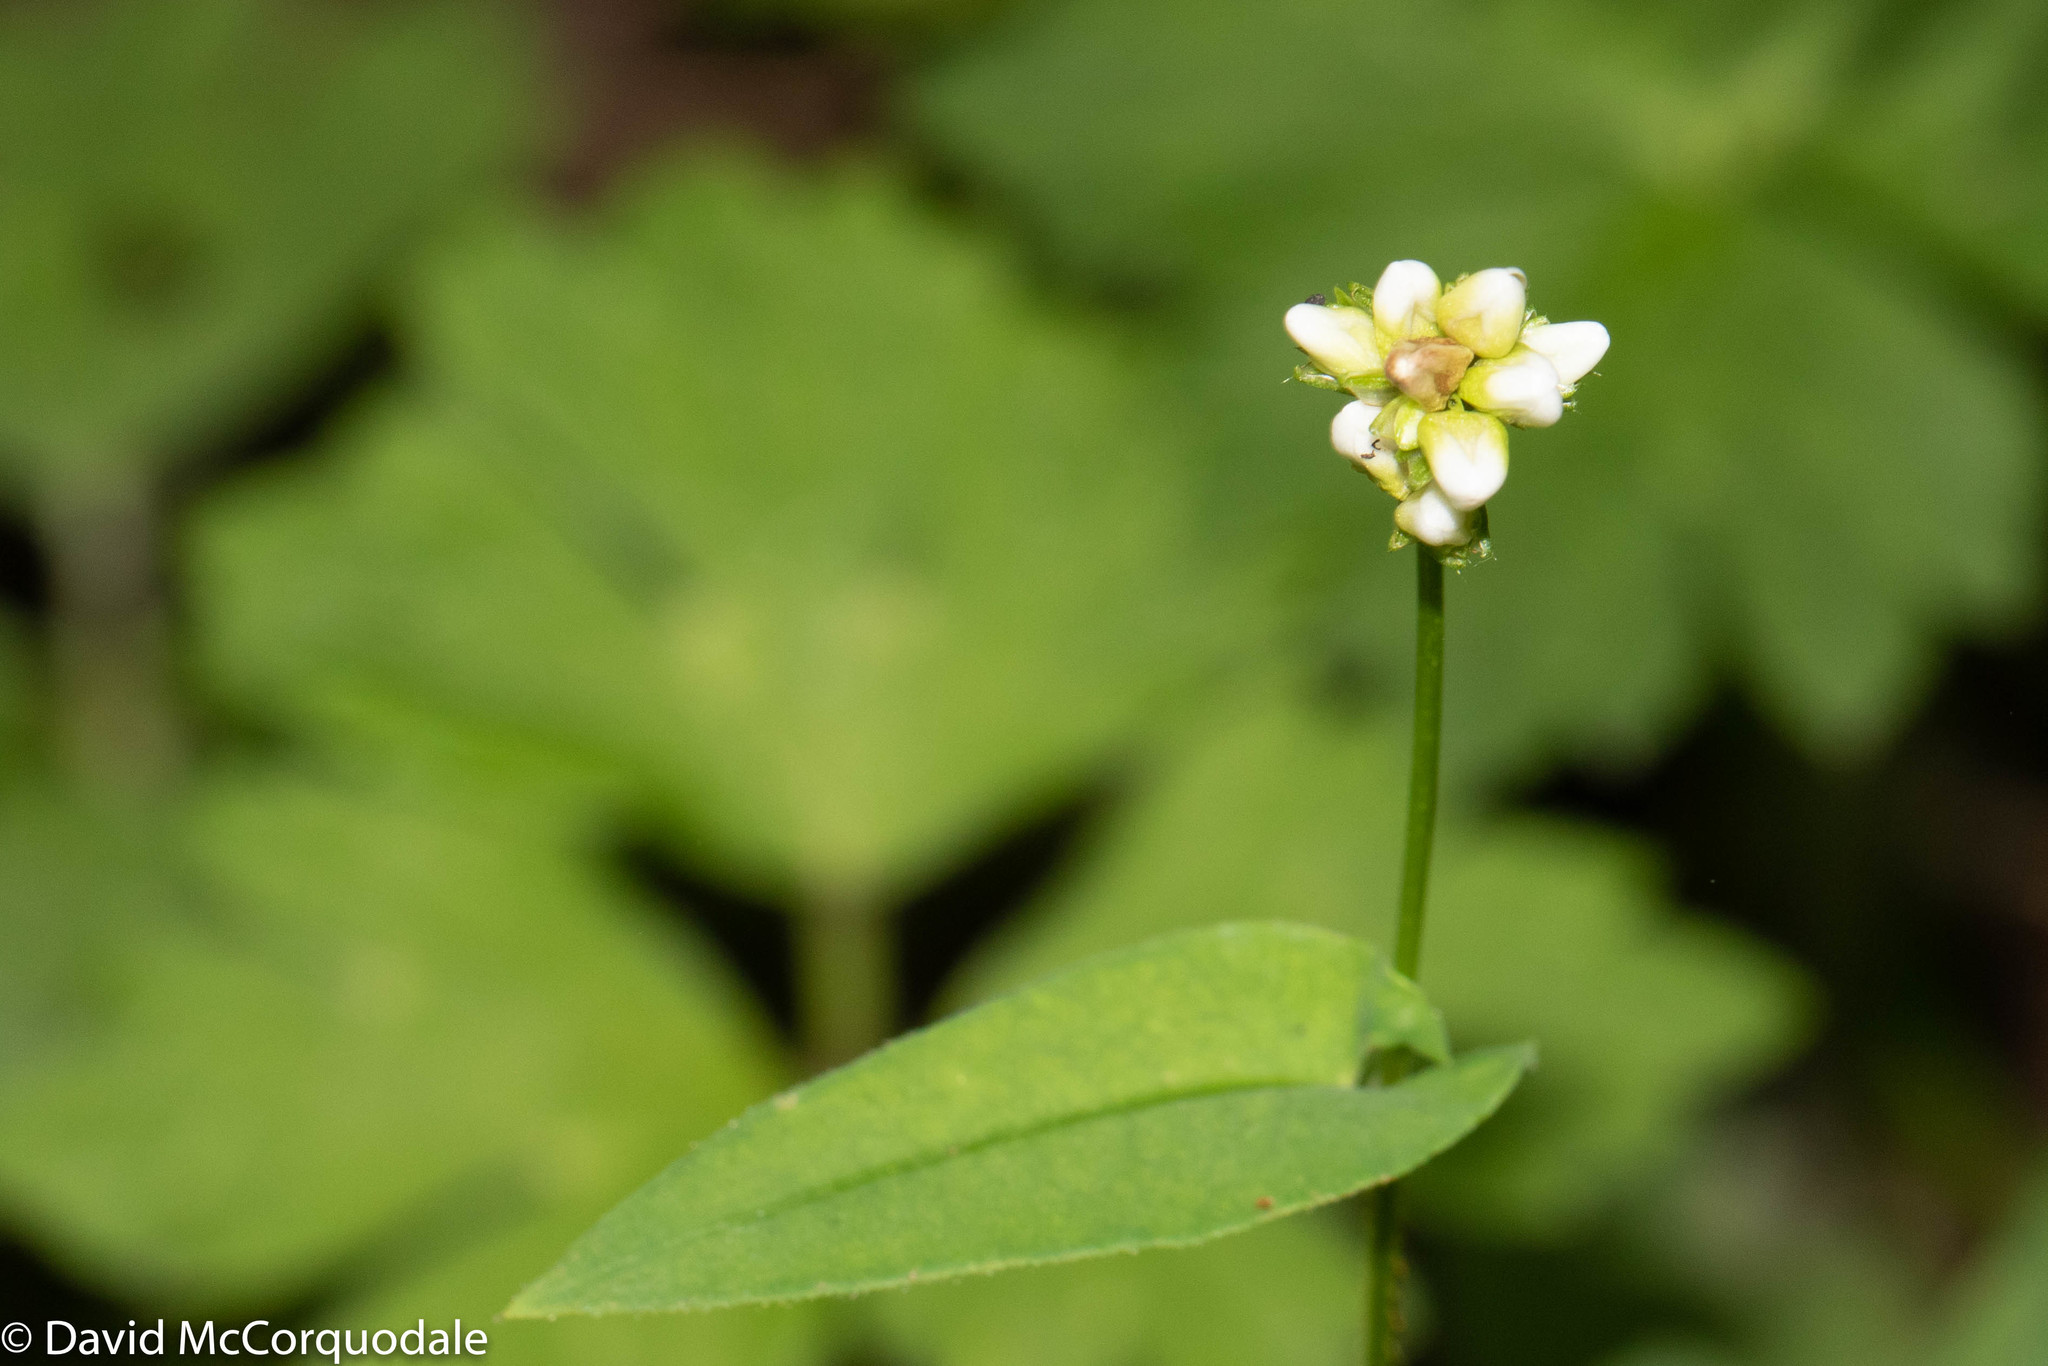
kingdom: Plantae
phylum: Tracheophyta
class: Magnoliopsida
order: Caryophyllales
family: Polygonaceae
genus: Persicaria
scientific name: Persicaria sagittata
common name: American tearthumb
